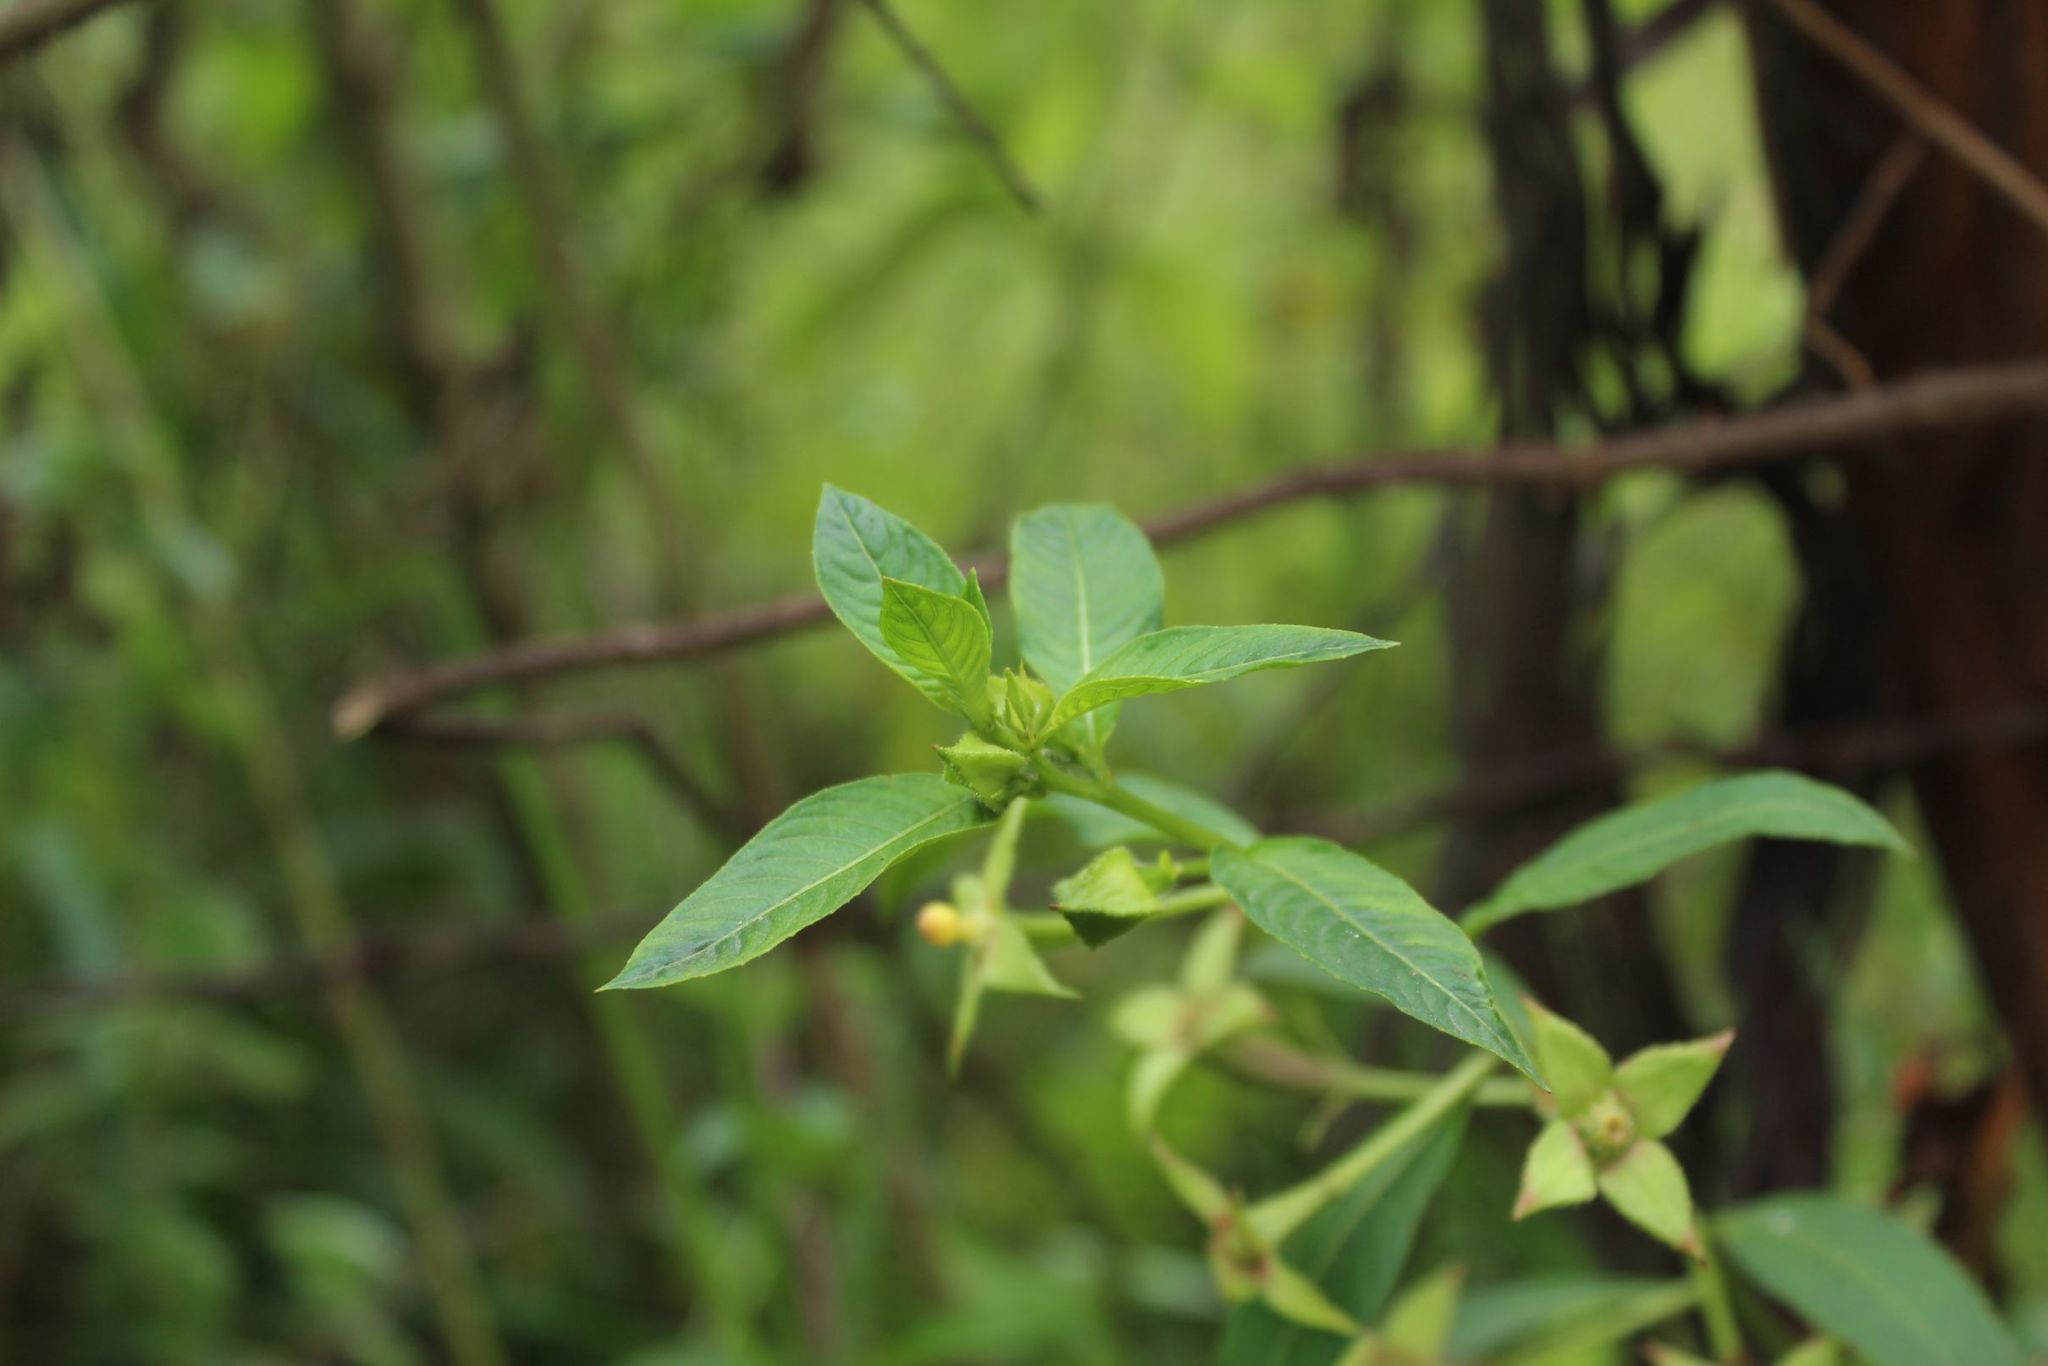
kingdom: Plantae
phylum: Tracheophyta
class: Magnoliopsida
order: Myrtales
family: Onagraceae
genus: Ludwigia
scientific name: Ludwigia peruviana
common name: Peruvian primrose-willow
